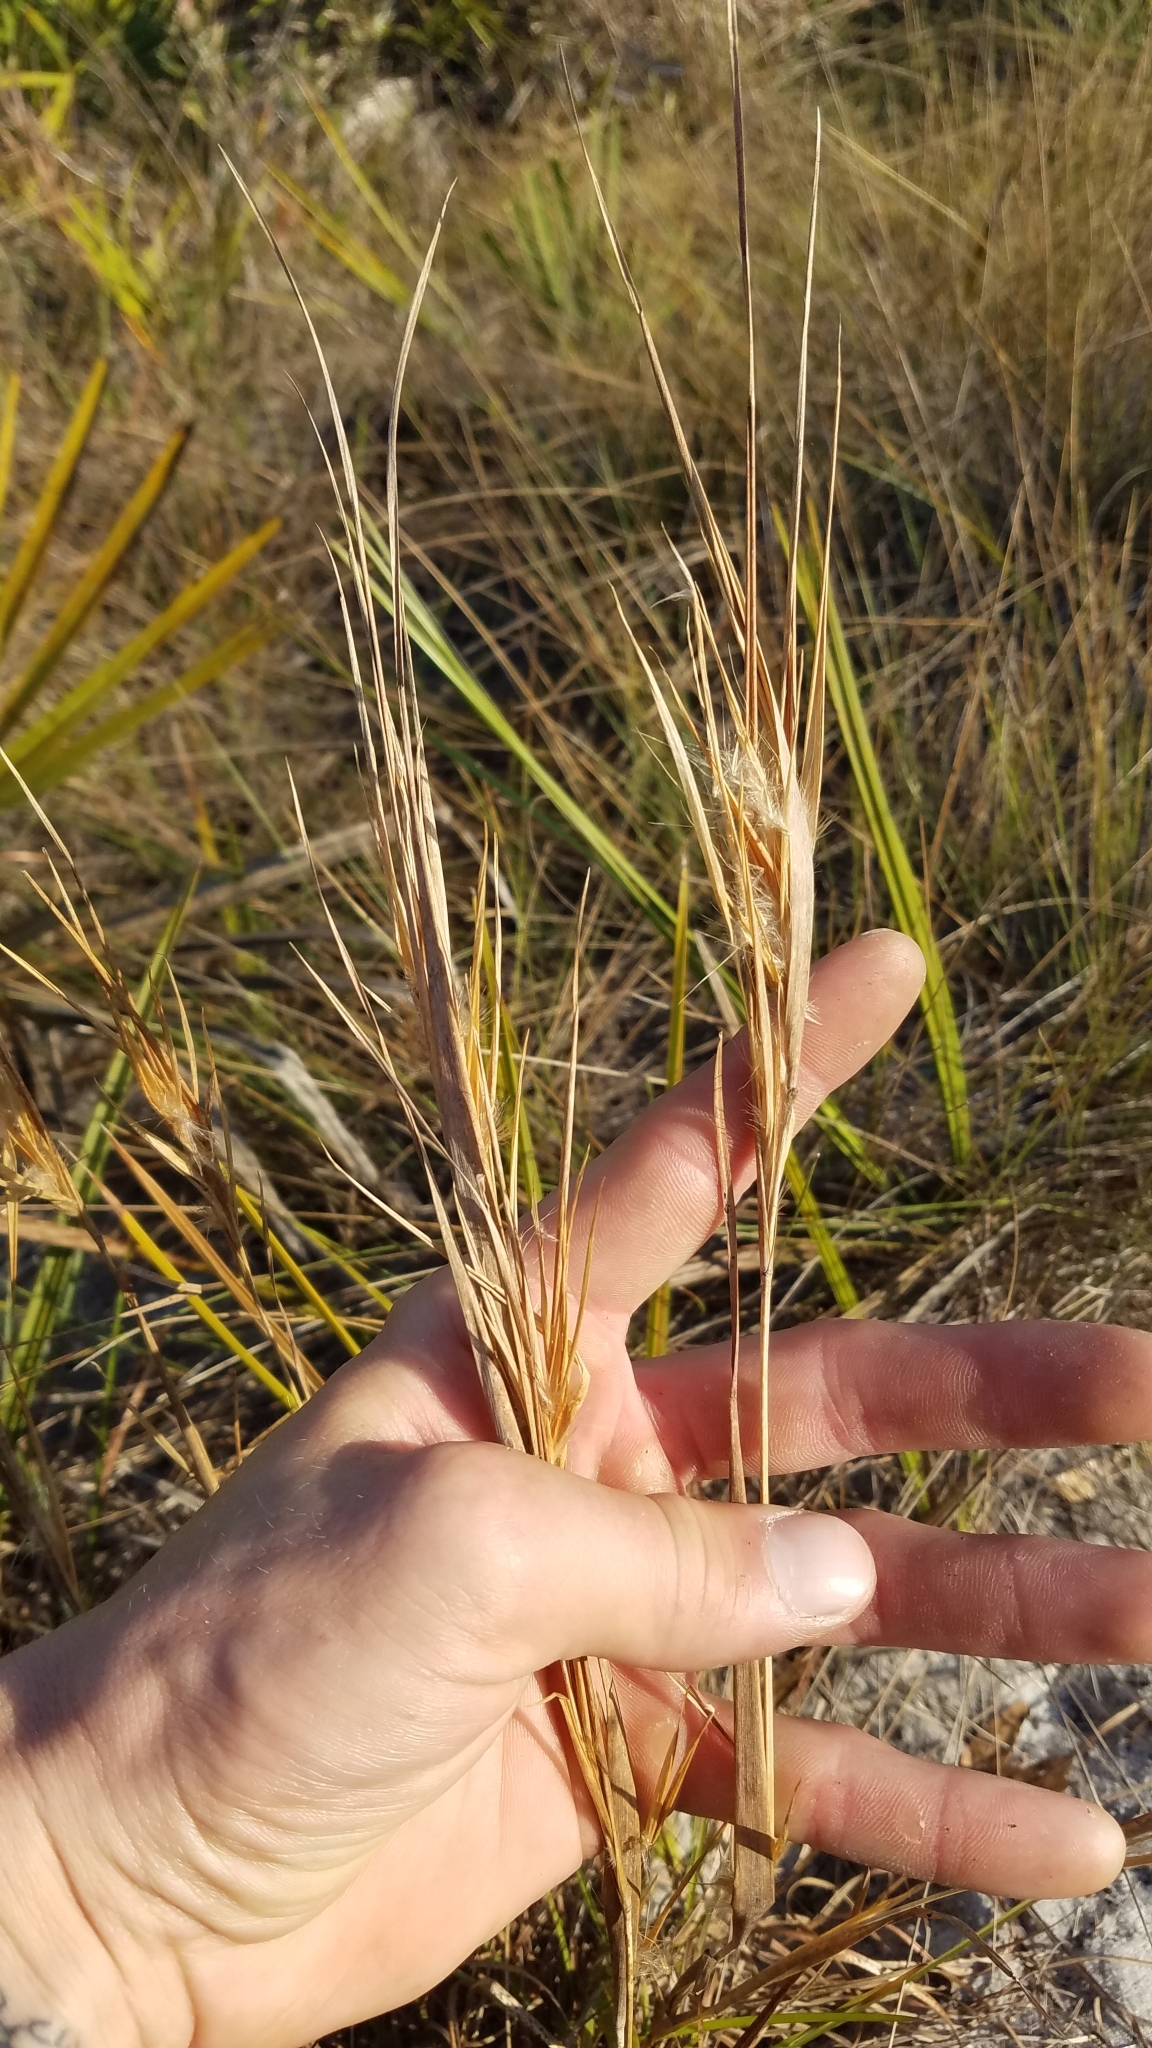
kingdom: Plantae
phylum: Tracheophyta
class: Liliopsida
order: Poales
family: Poaceae
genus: Andropogon
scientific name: Andropogon gyrans
